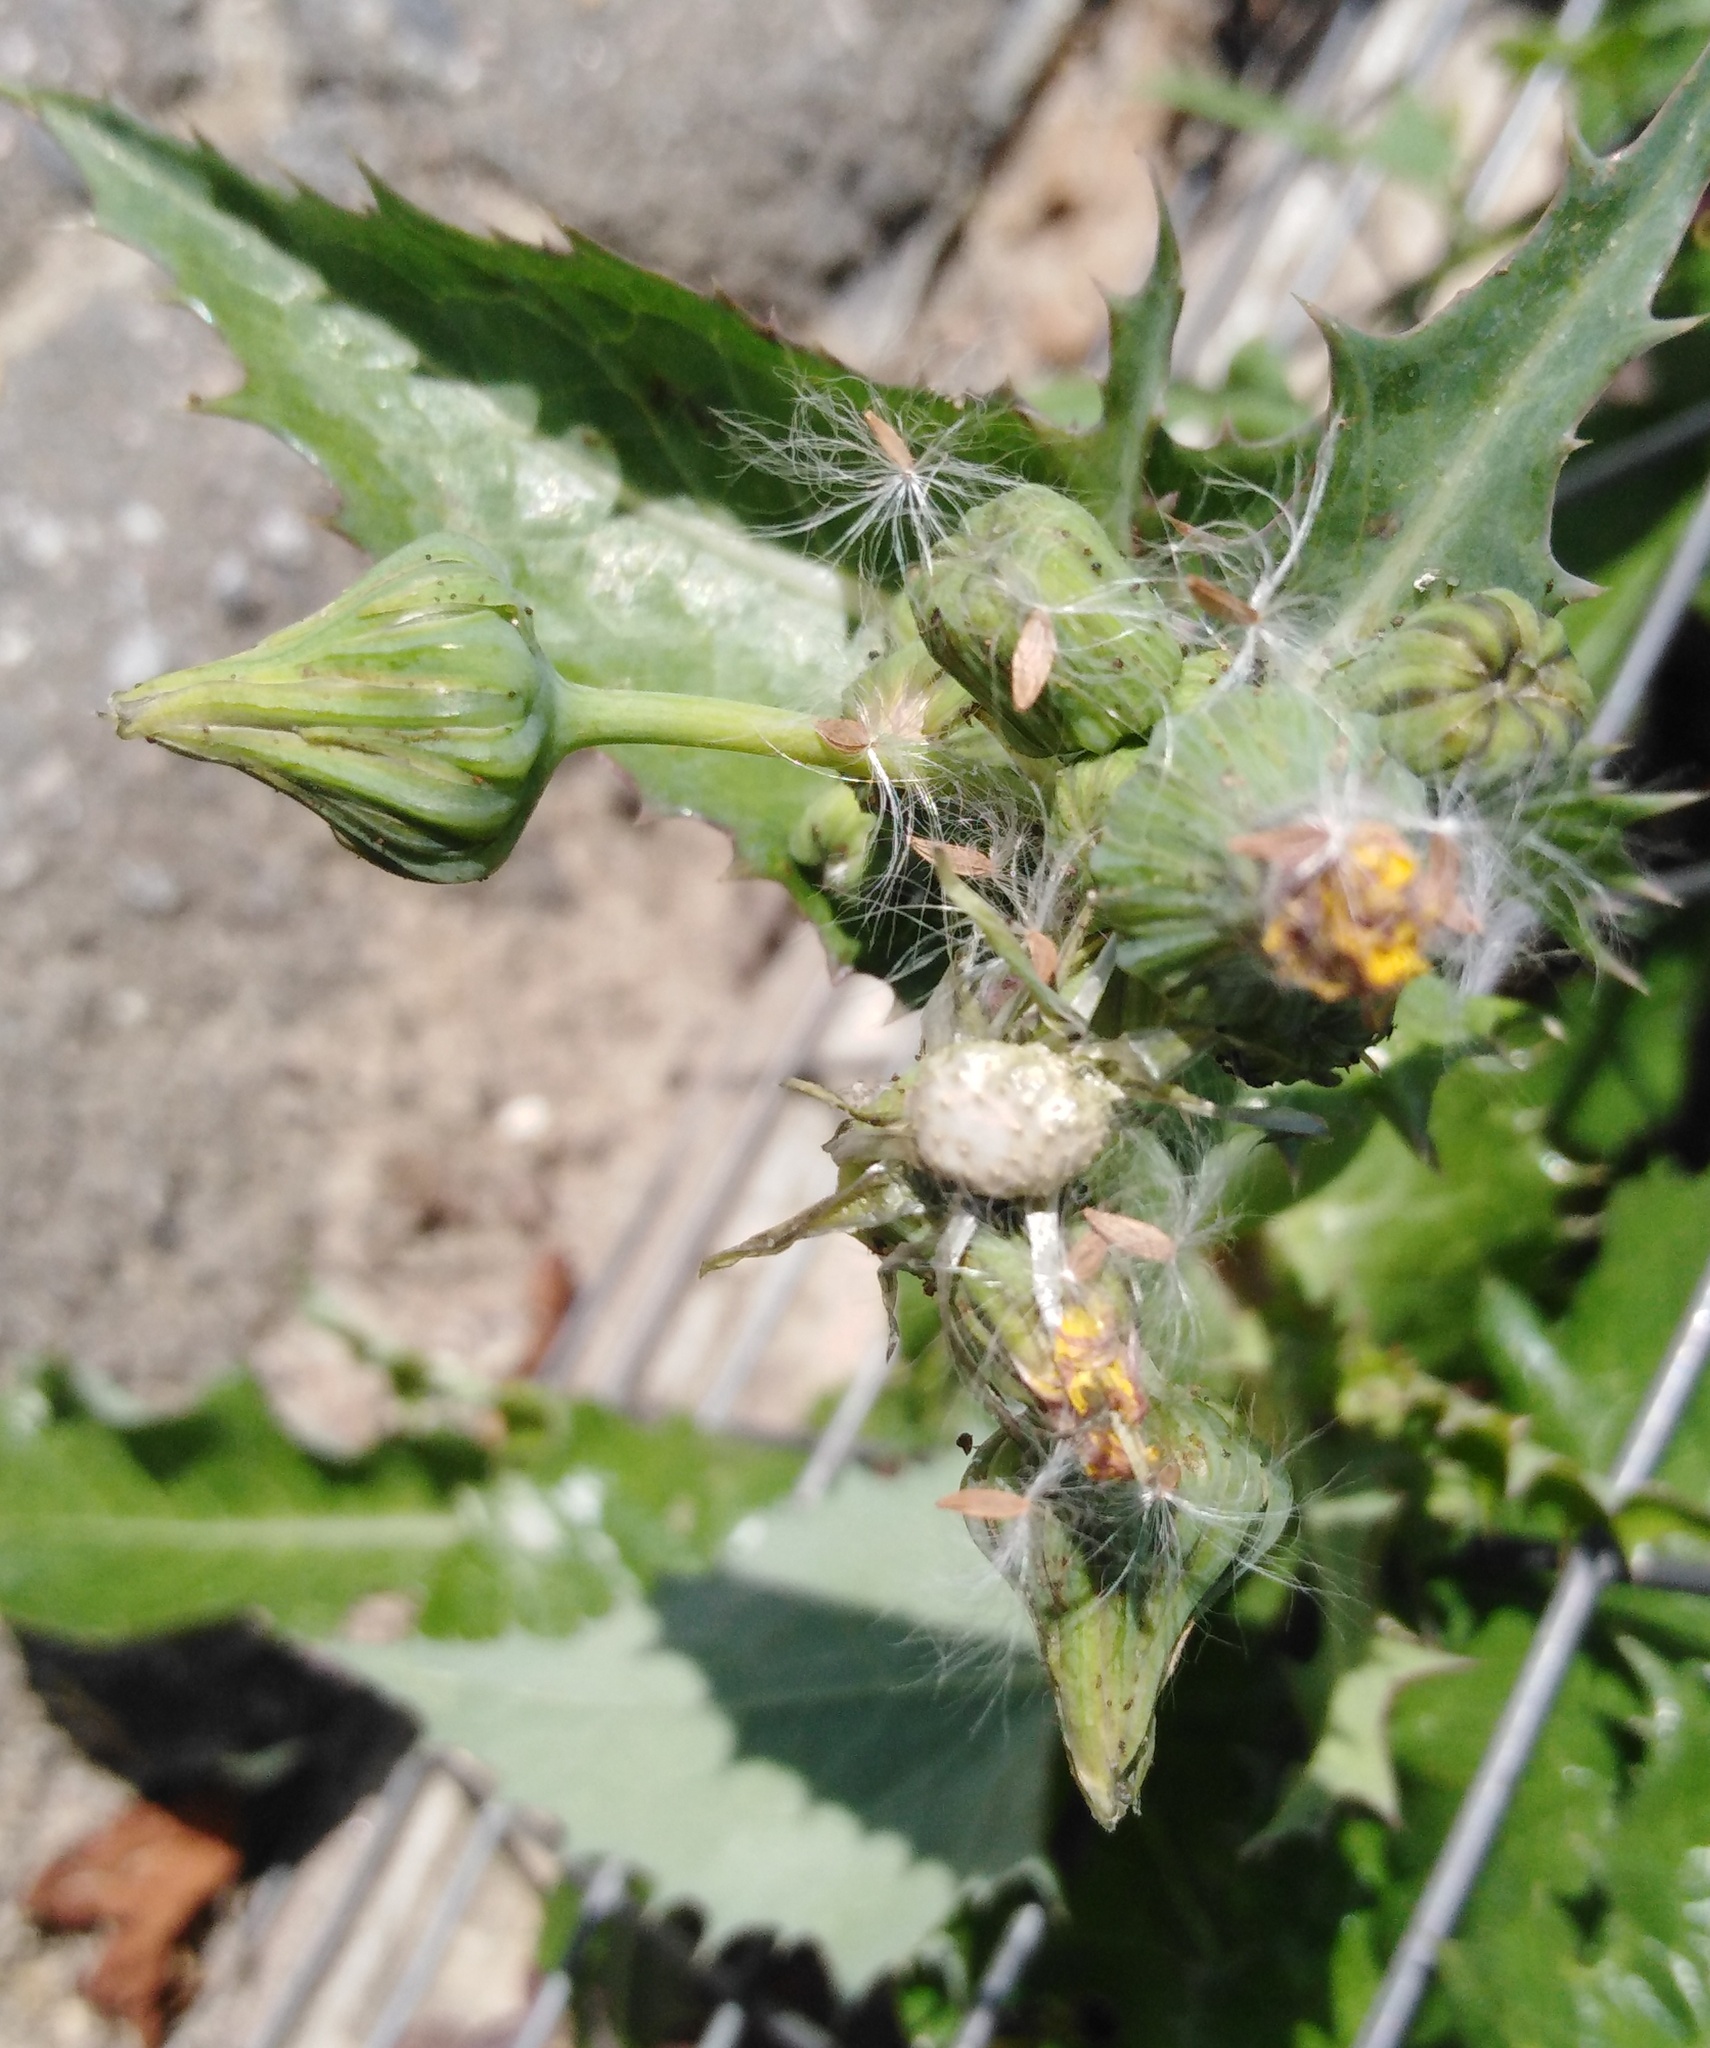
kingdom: Plantae
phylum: Tracheophyta
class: Magnoliopsida
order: Asterales
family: Asteraceae
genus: Sonchus
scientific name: Sonchus asper
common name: Prickly sow-thistle
